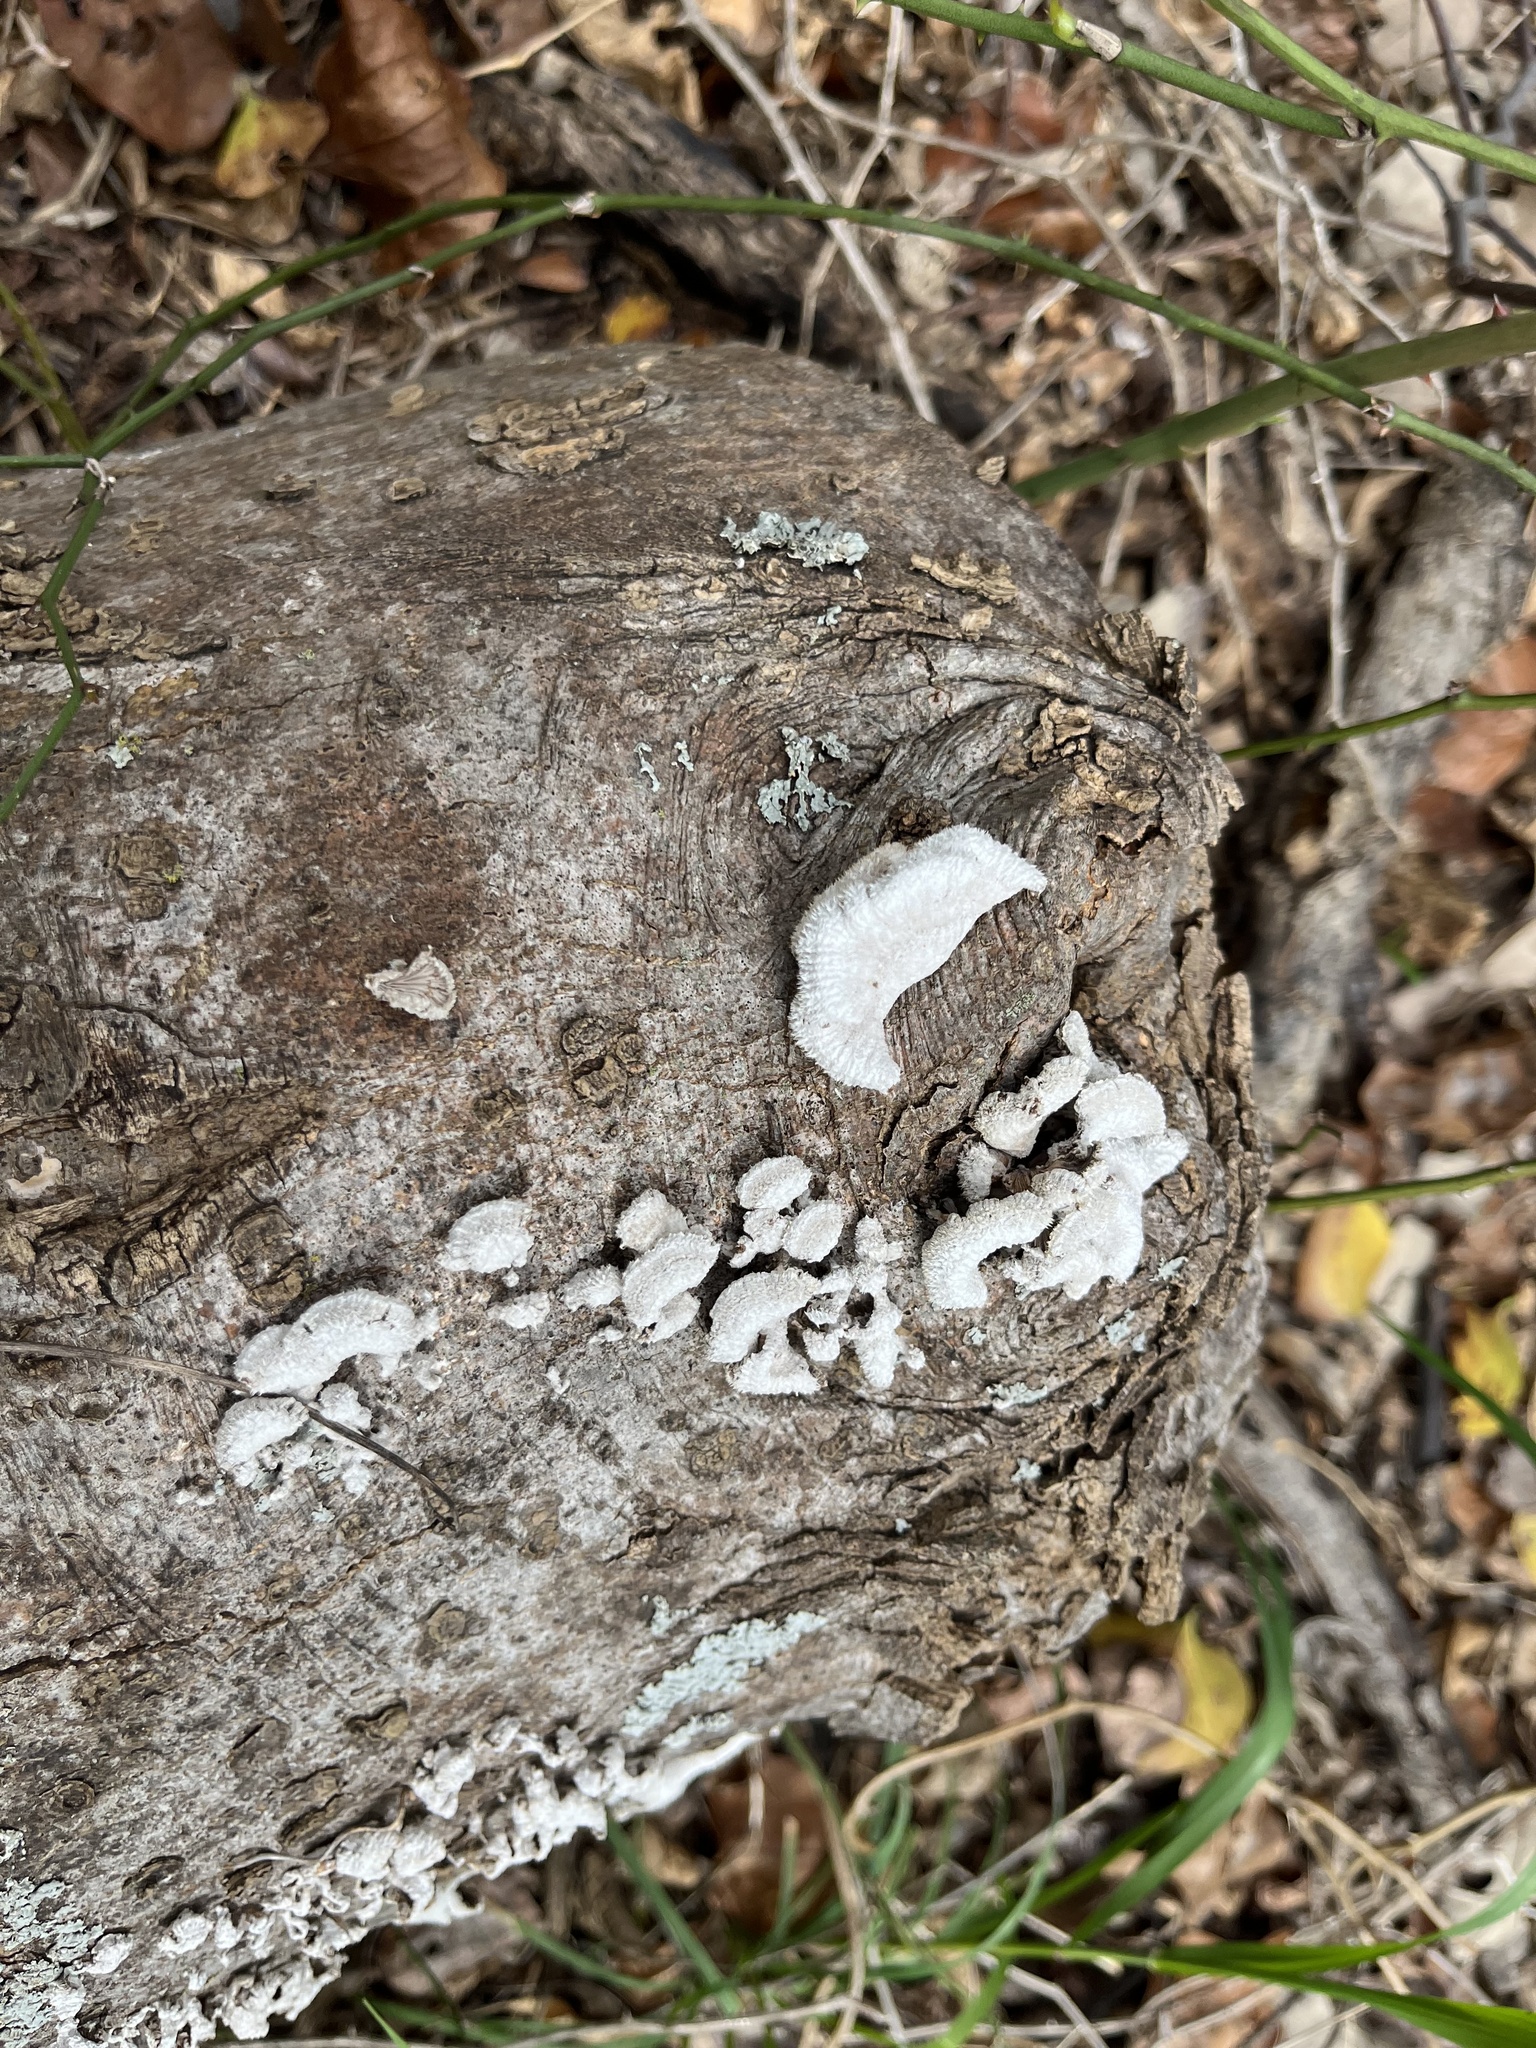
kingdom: Fungi
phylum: Basidiomycota
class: Agaricomycetes
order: Agaricales
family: Schizophyllaceae
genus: Schizophyllum
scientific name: Schizophyllum commune
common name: Common porecrust
